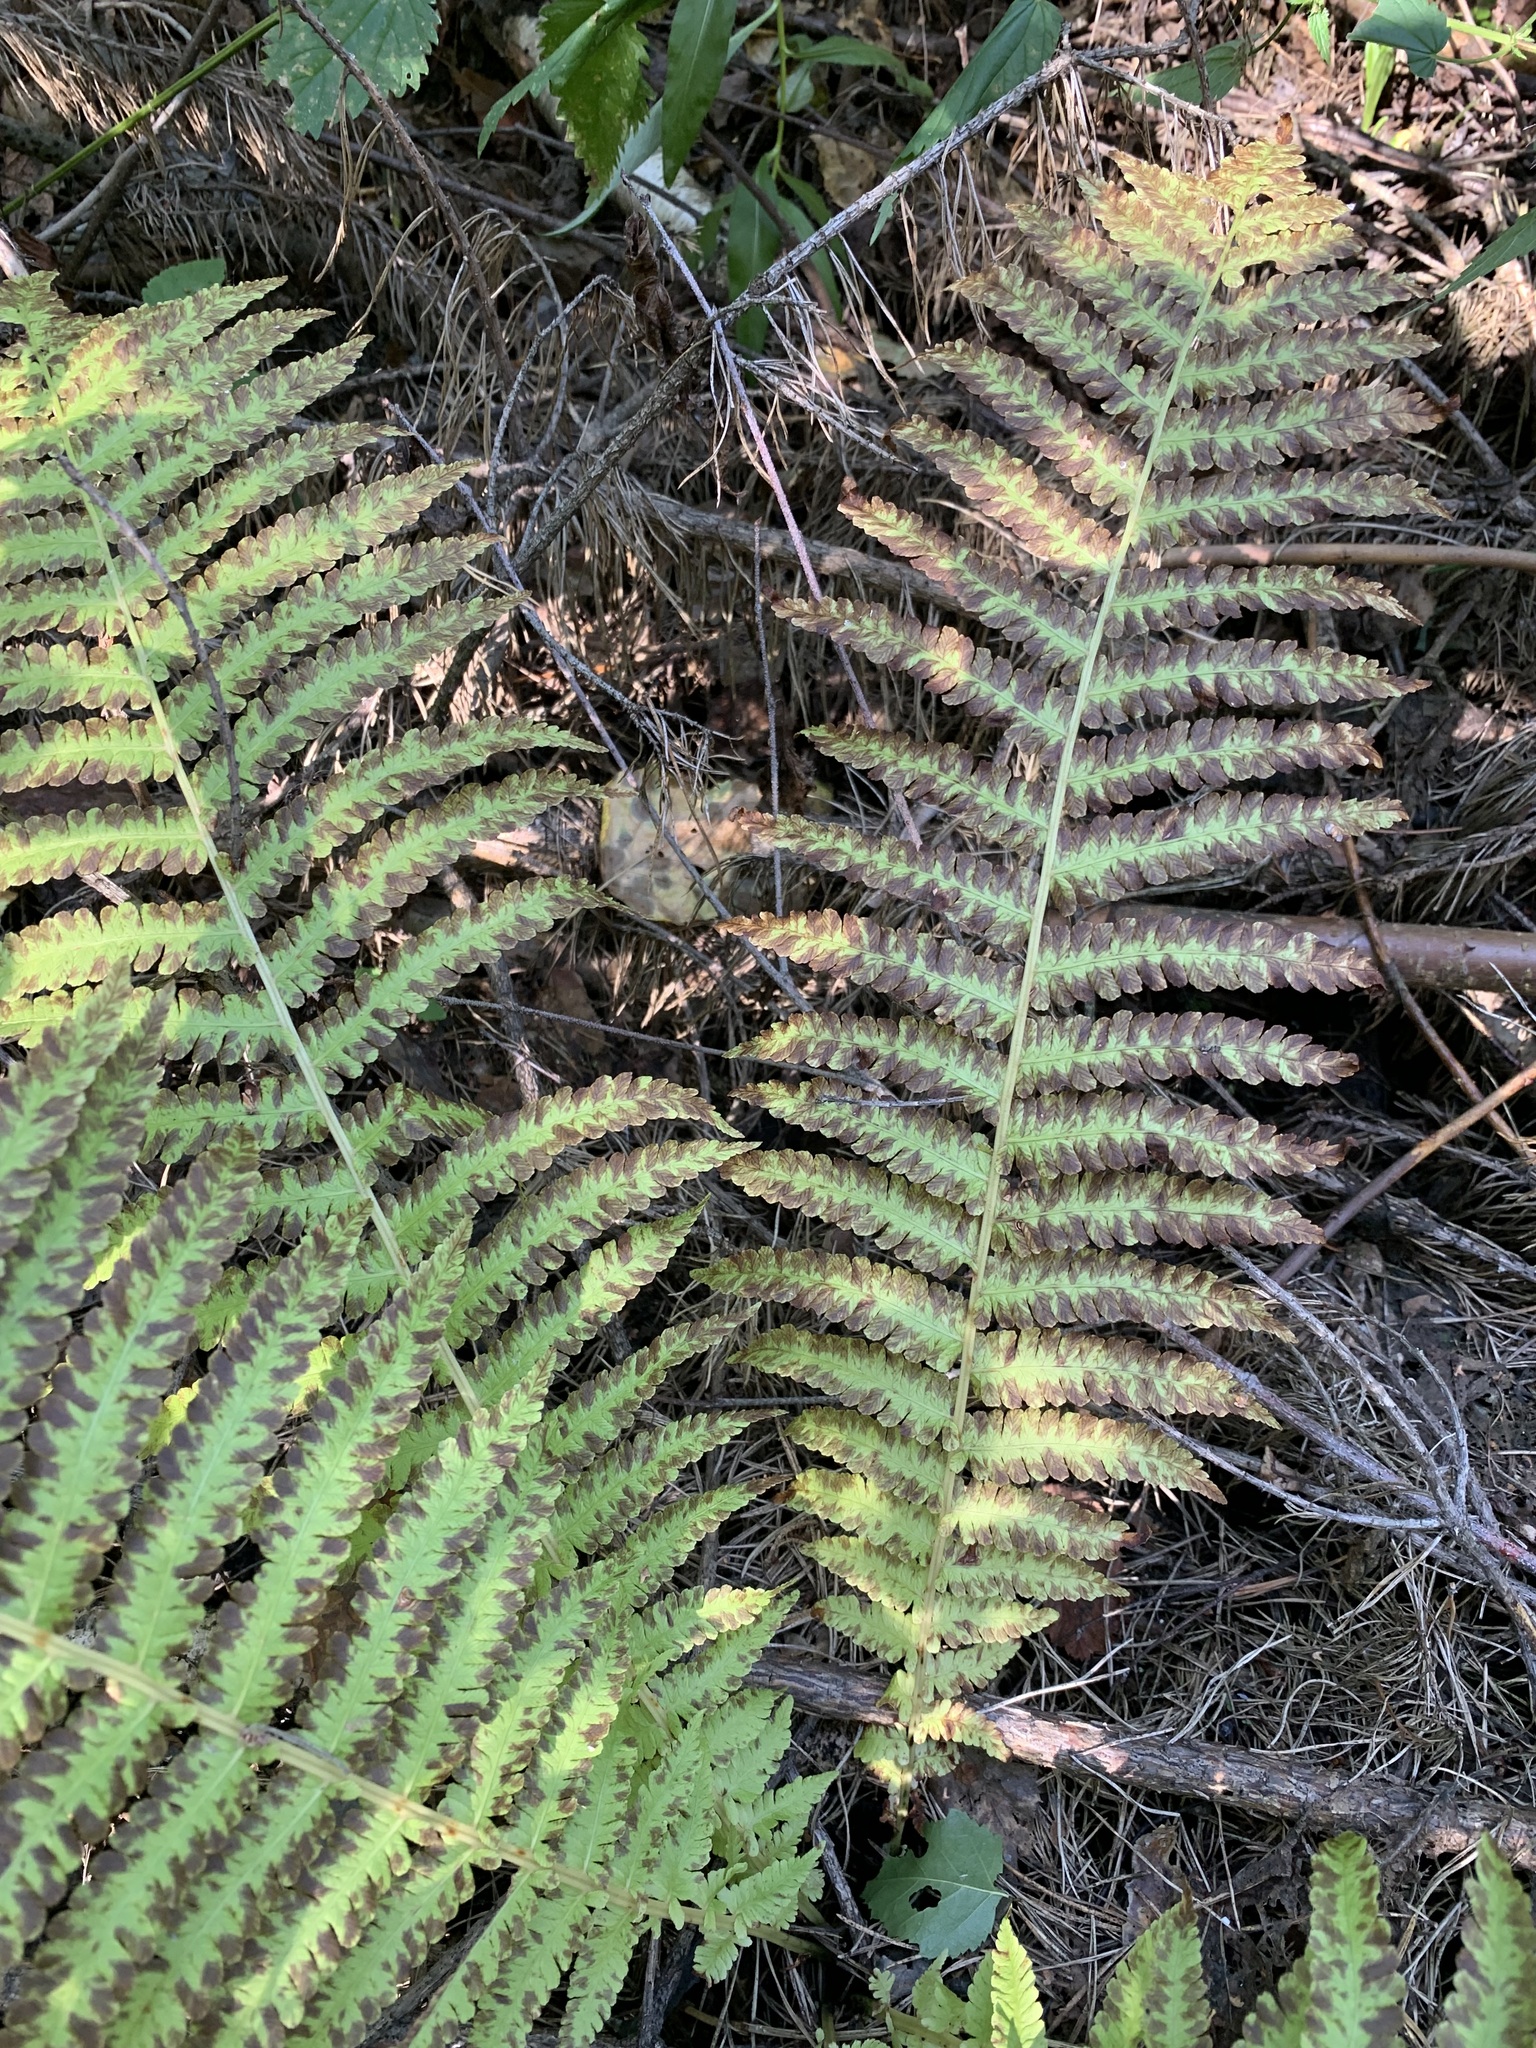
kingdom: Plantae
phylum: Tracheophyta
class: Polypodiopsida
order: Polypodiales
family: Onocleaceae
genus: Matteuccia
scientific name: Matteuccia struthiopteris
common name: Ostrich fern
